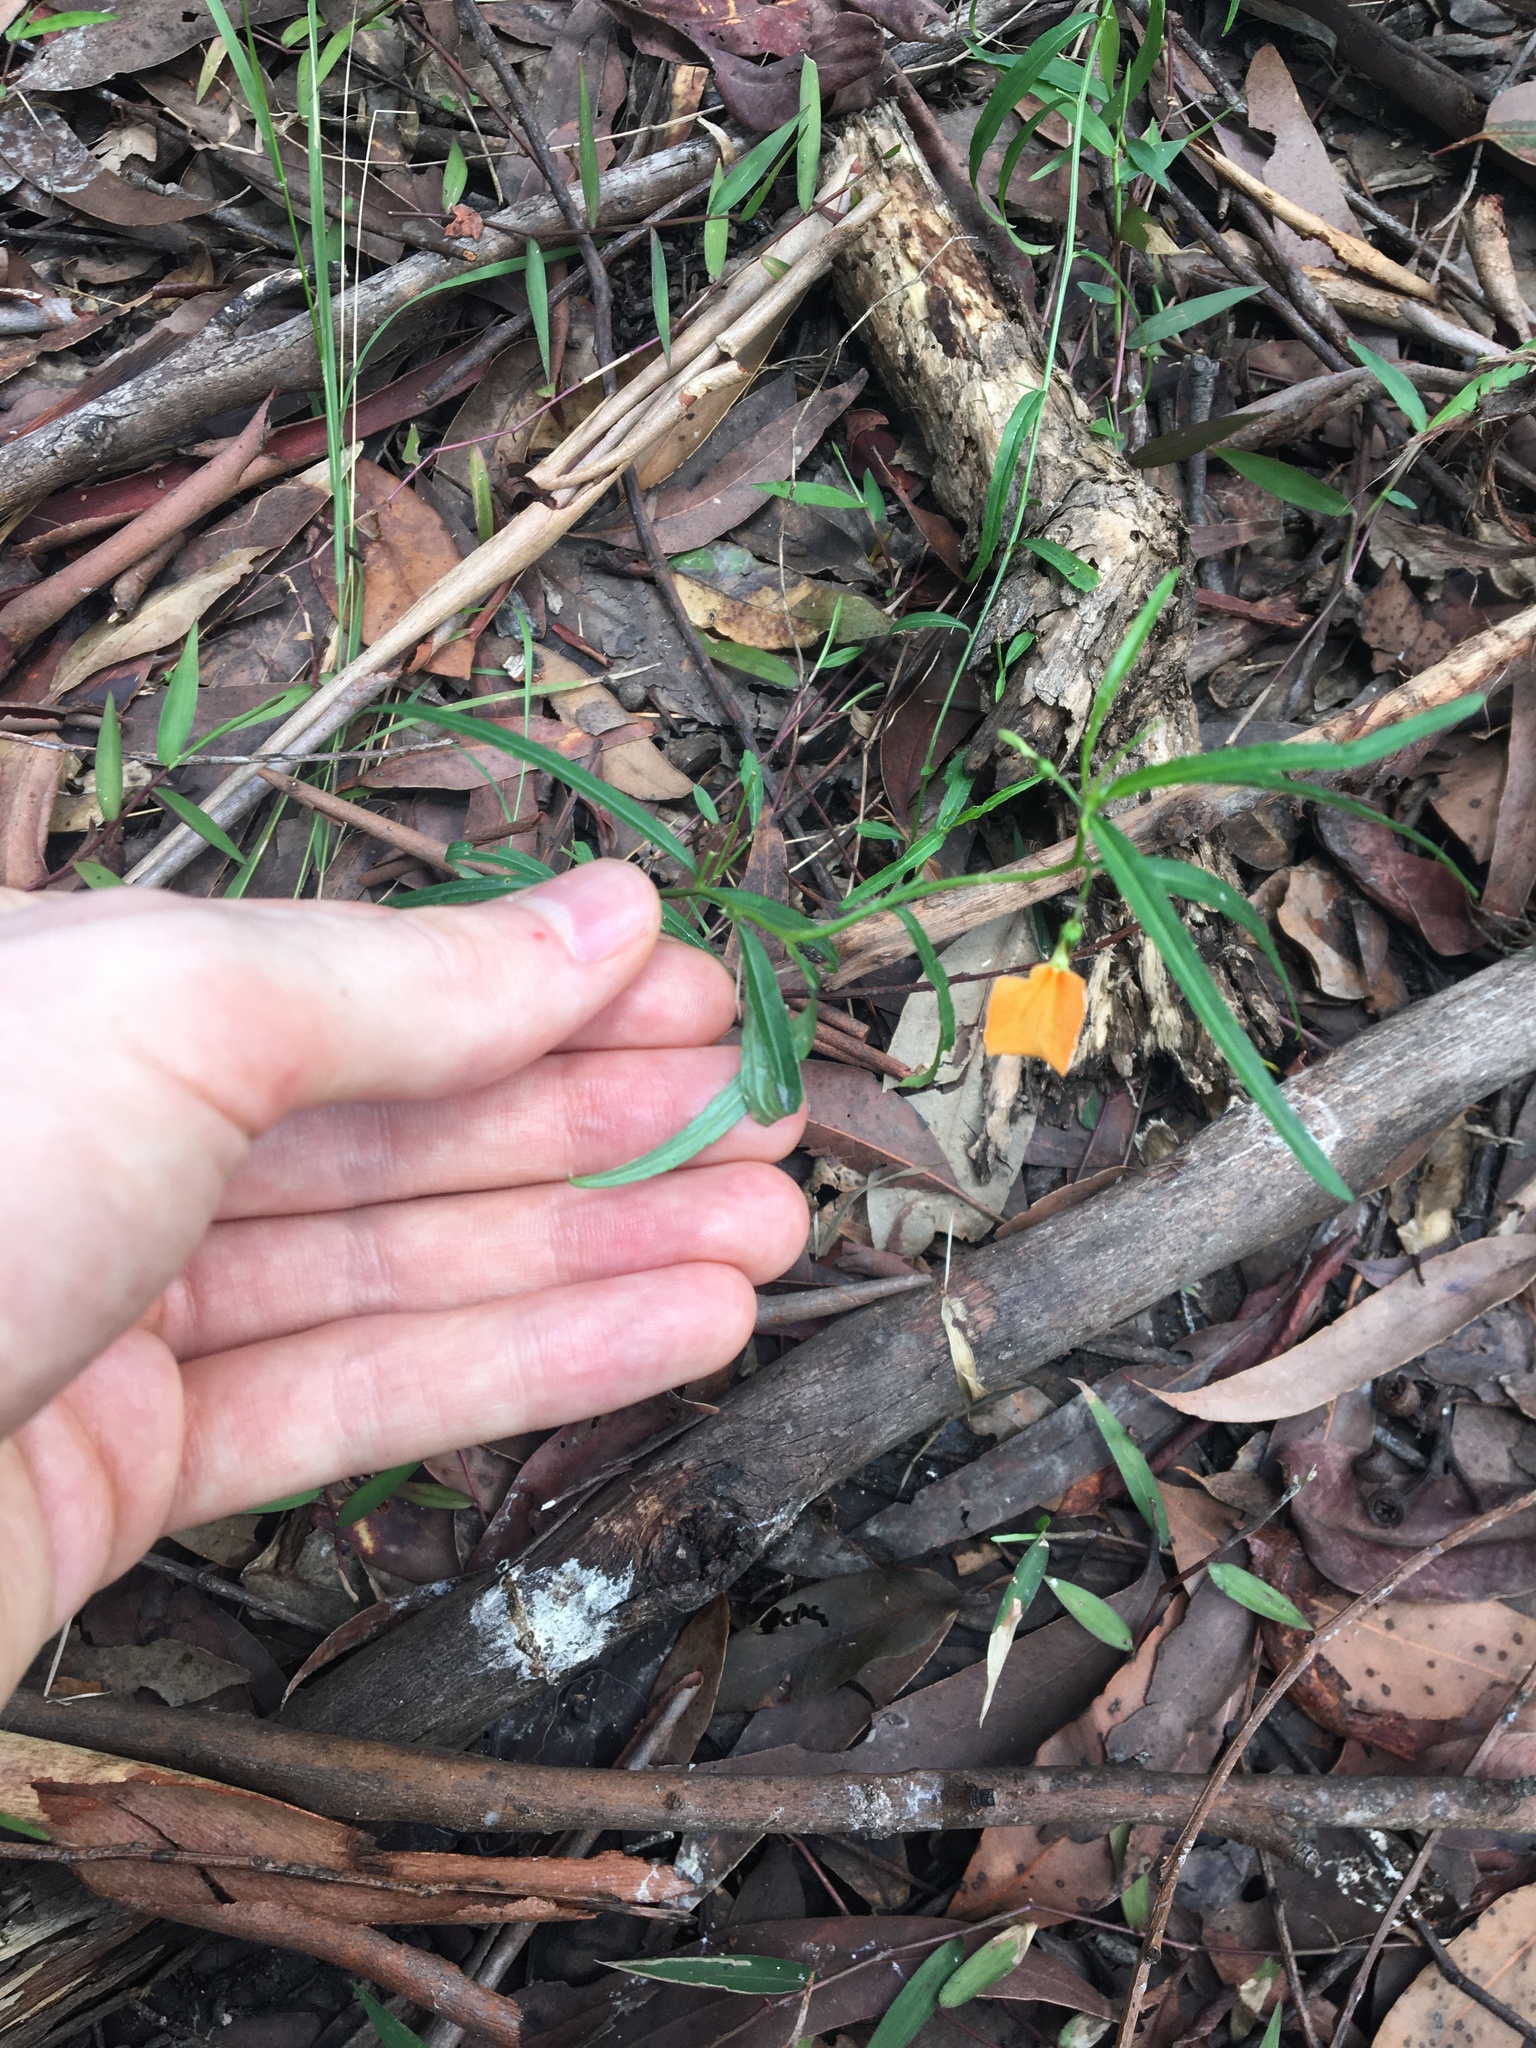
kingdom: Plantae
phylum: Tracheophyta
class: Magnoliopsida
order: Malpighiales
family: Violaceae
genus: Pigea
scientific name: Pigea stellarioides
